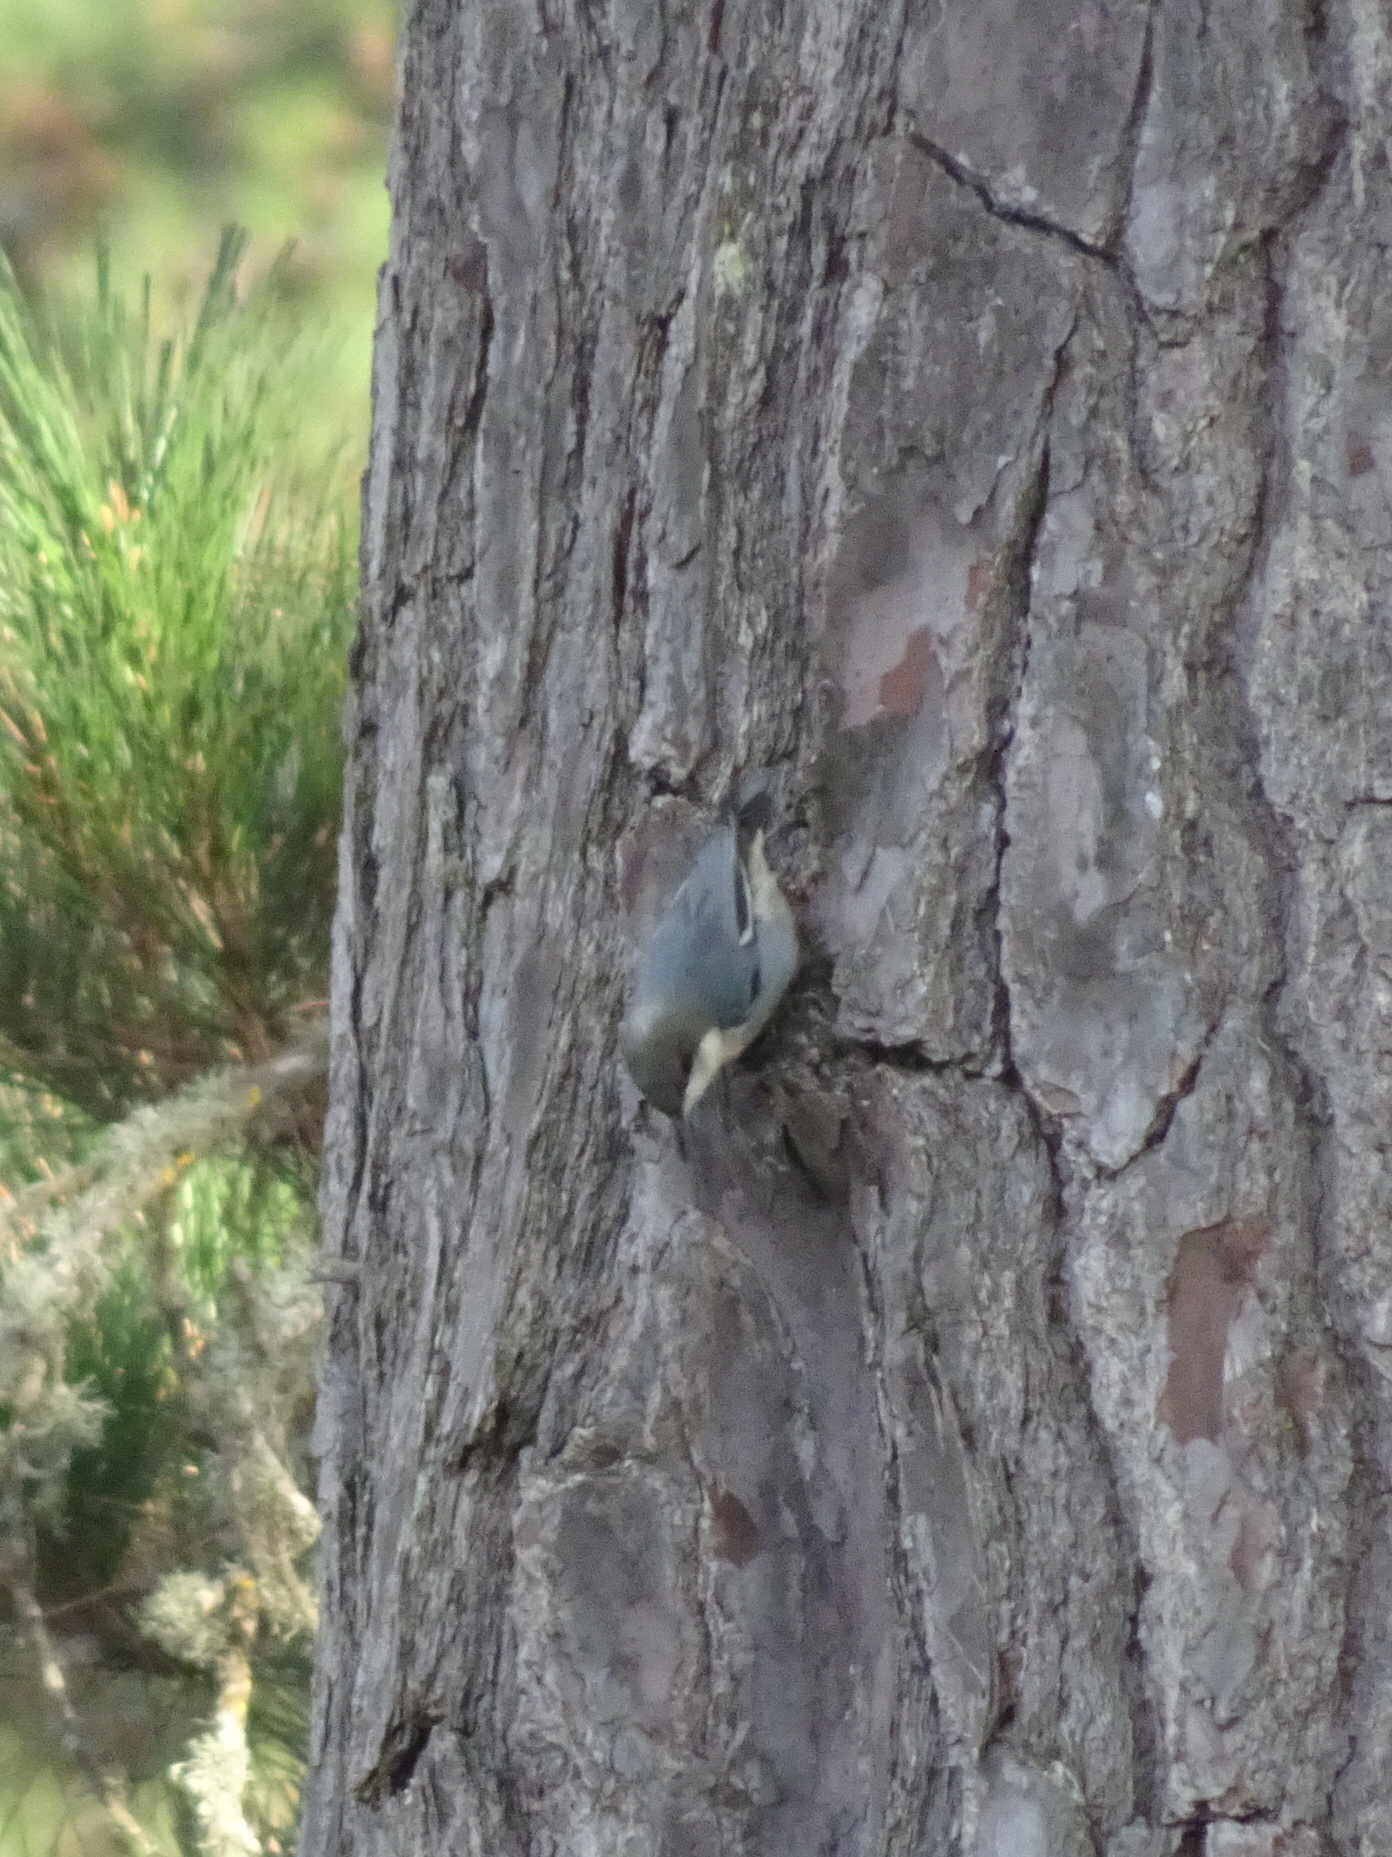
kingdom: Animalia
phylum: Chordata
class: Aves
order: Passeriformes
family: Sittidae
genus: Sitta
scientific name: Sitta pygmaea
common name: Pygmy nuthatch
